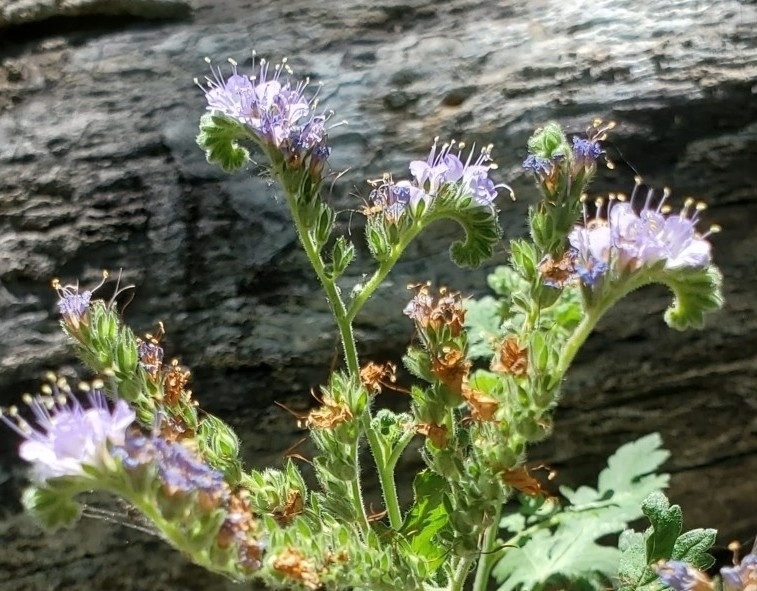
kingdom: Plantae
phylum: Tracheophyta
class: Magnoliopsida
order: Boraginales
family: Hydrophyllaceae
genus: Phacelia
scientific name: Phacelia congesta
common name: Blue curls
